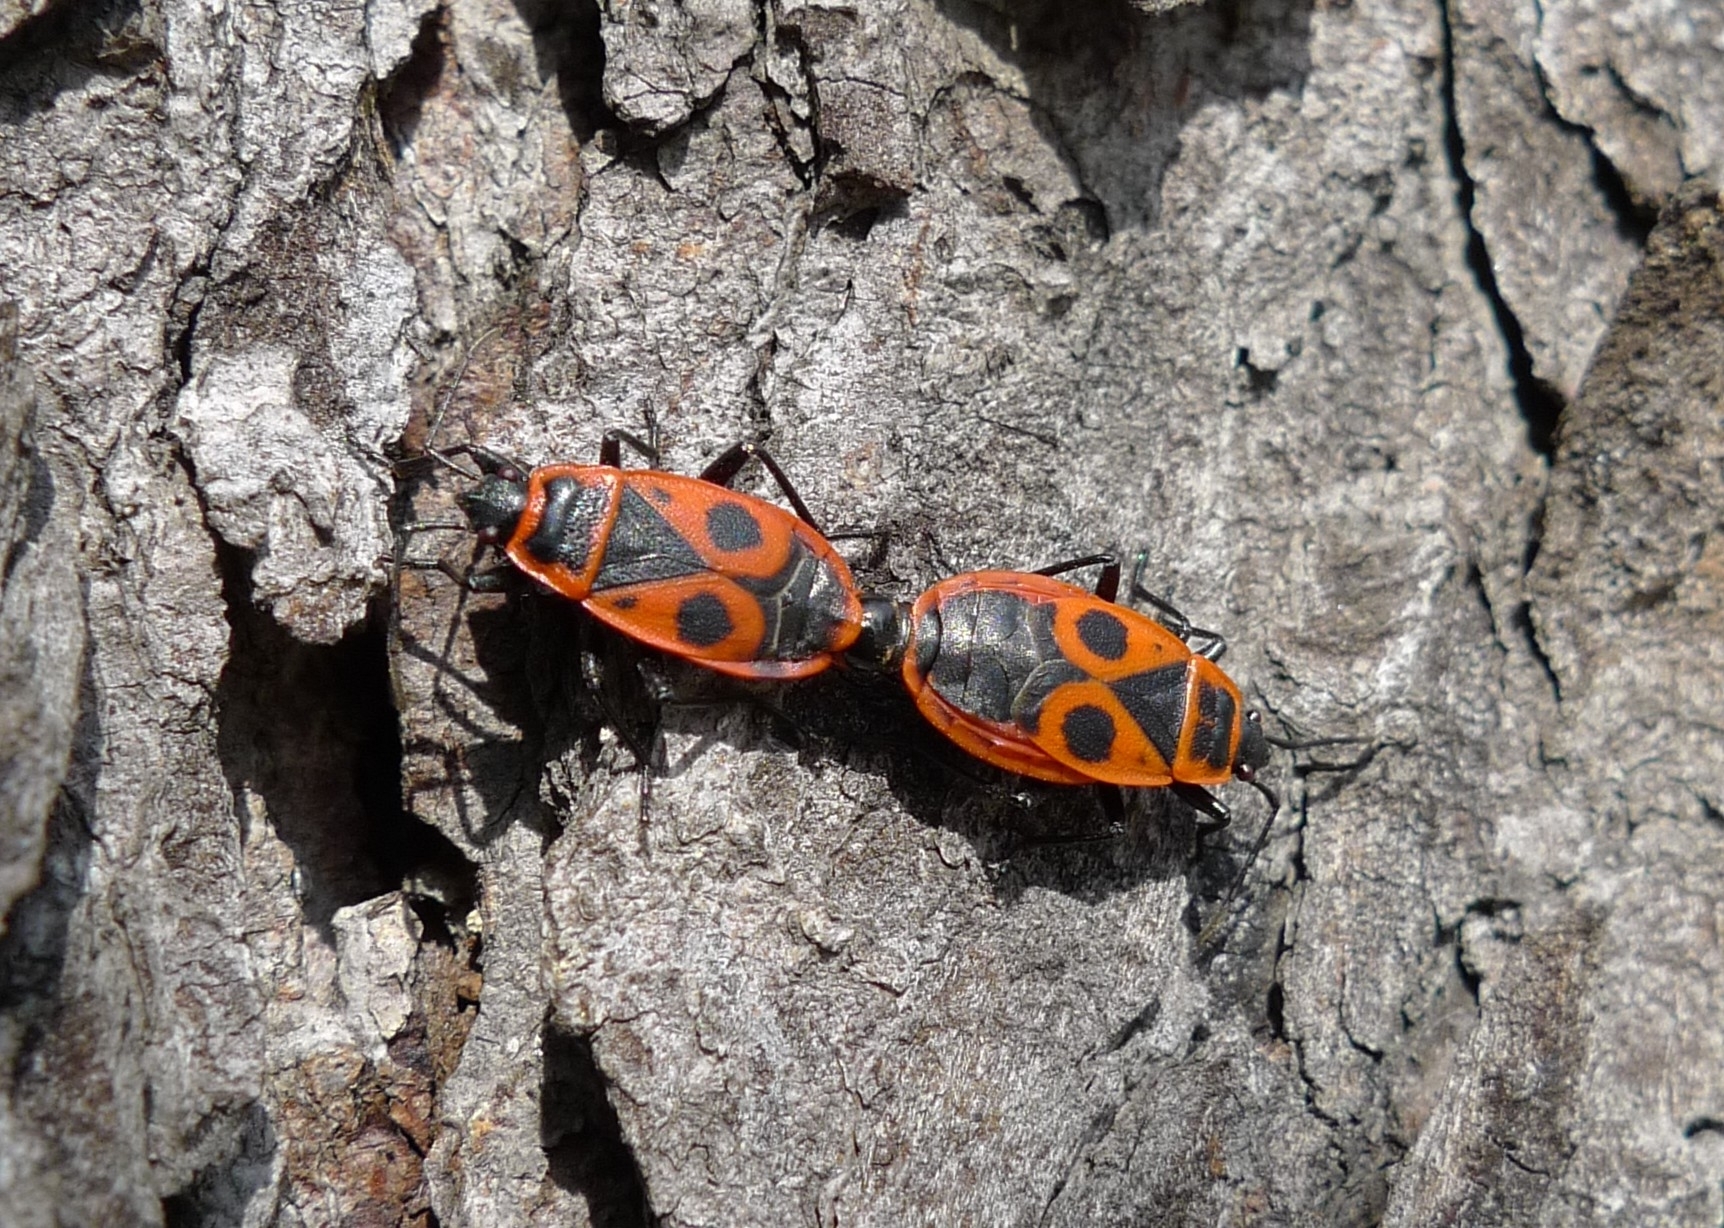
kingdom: Animalia
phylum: Arthropoda
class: Insecta
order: Hemiptera
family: Pyrrhocoridae
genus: Pyrrhocoris
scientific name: Pyrrhocoris apterus
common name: Firebug
